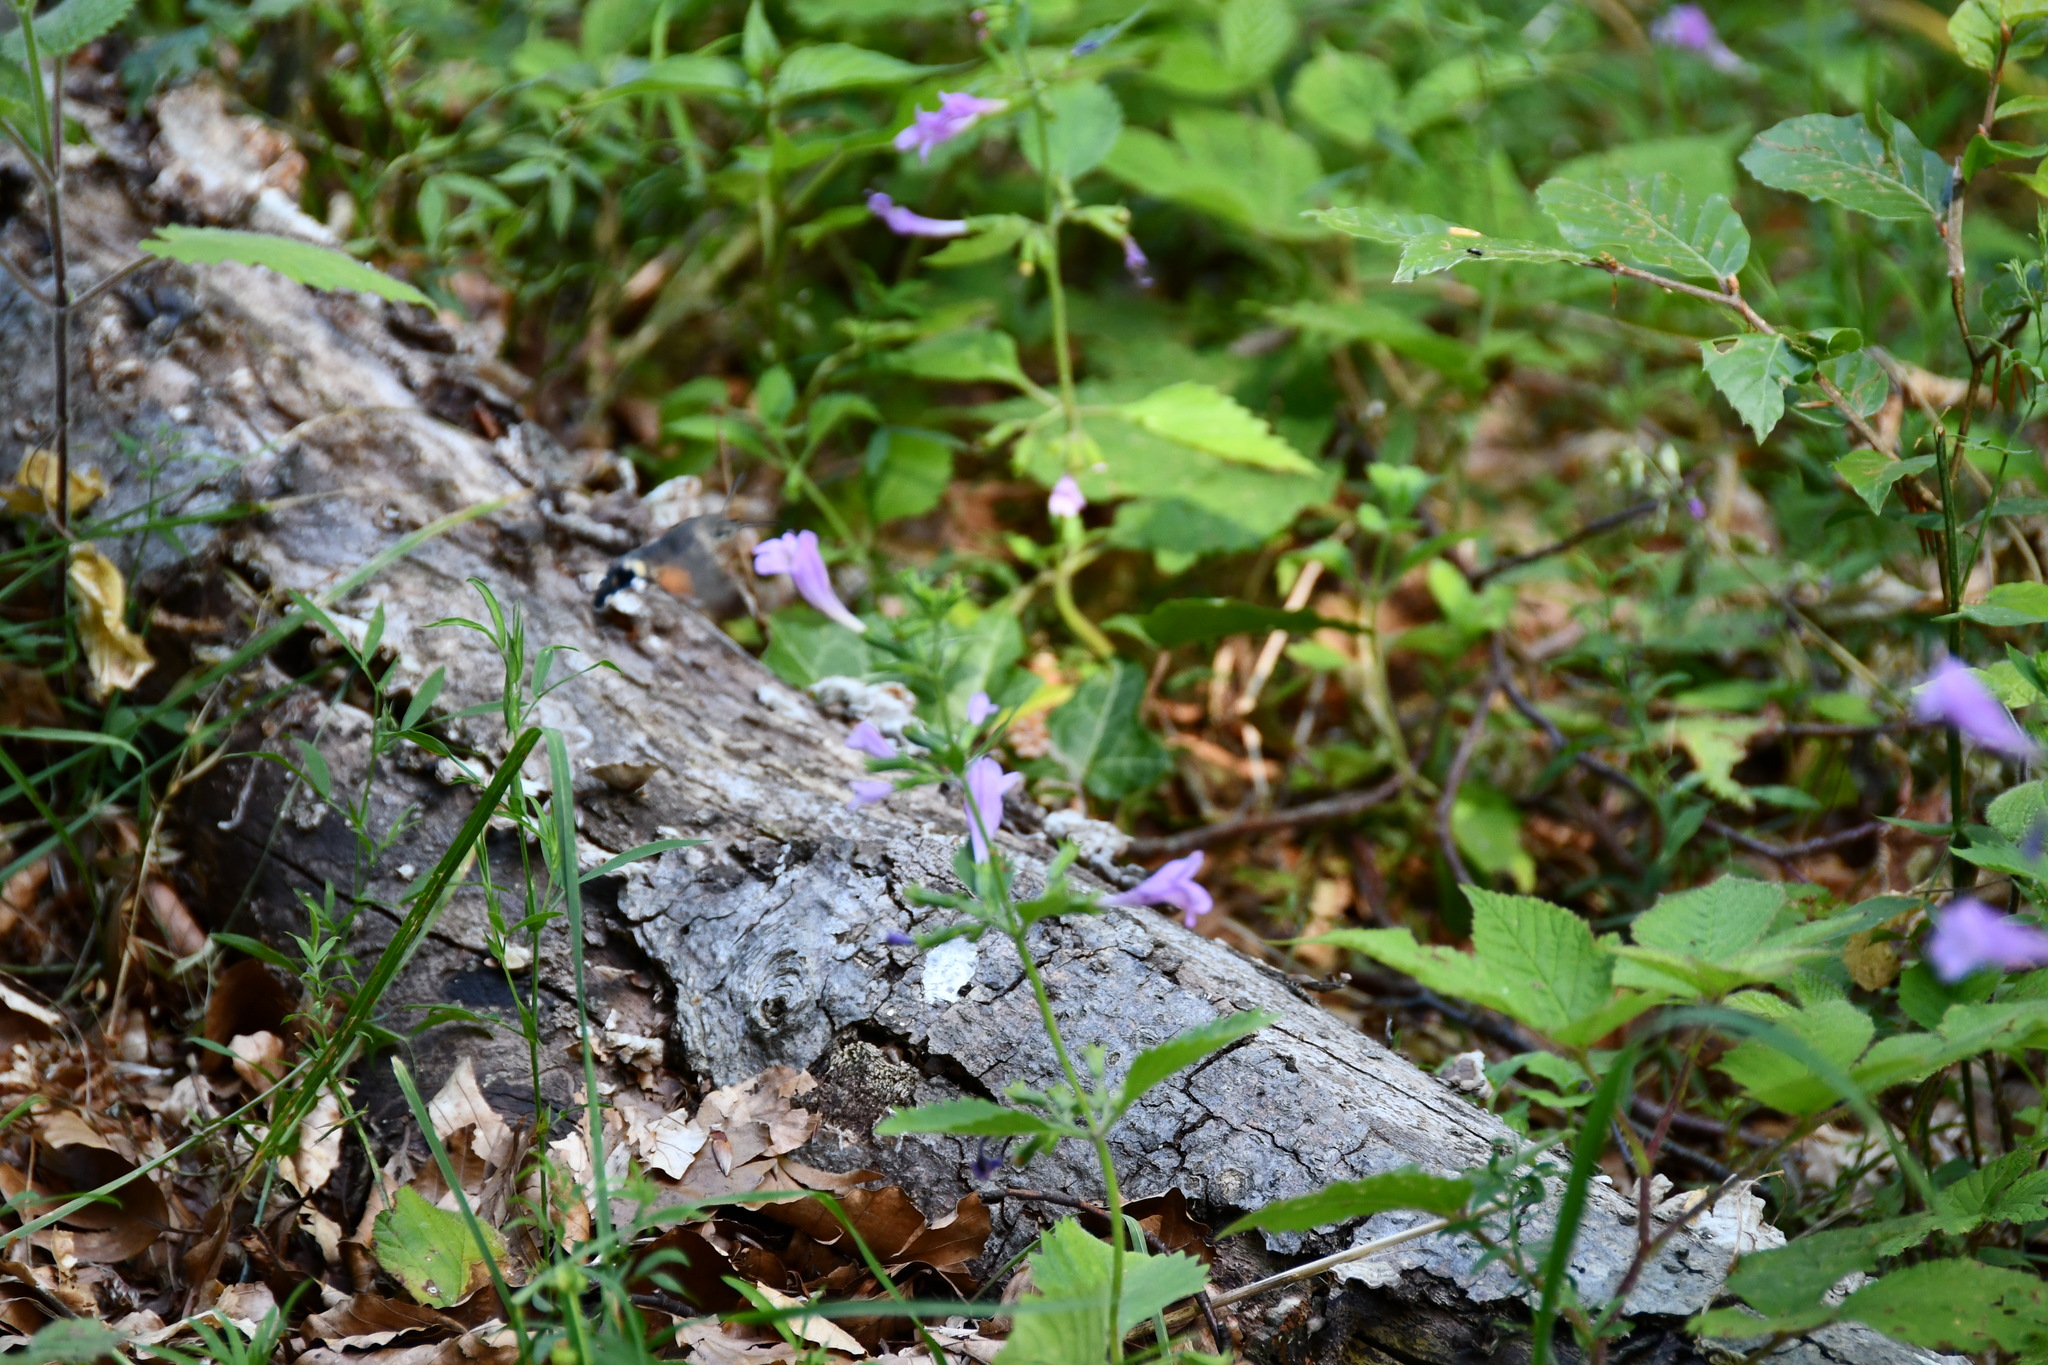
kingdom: Animalia
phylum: Arthropoda
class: Insecta
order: Lepidoptera
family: Sphingidae
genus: Macroglossum
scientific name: Macroglossum stellatarum
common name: Humming-bird hawk-moth
